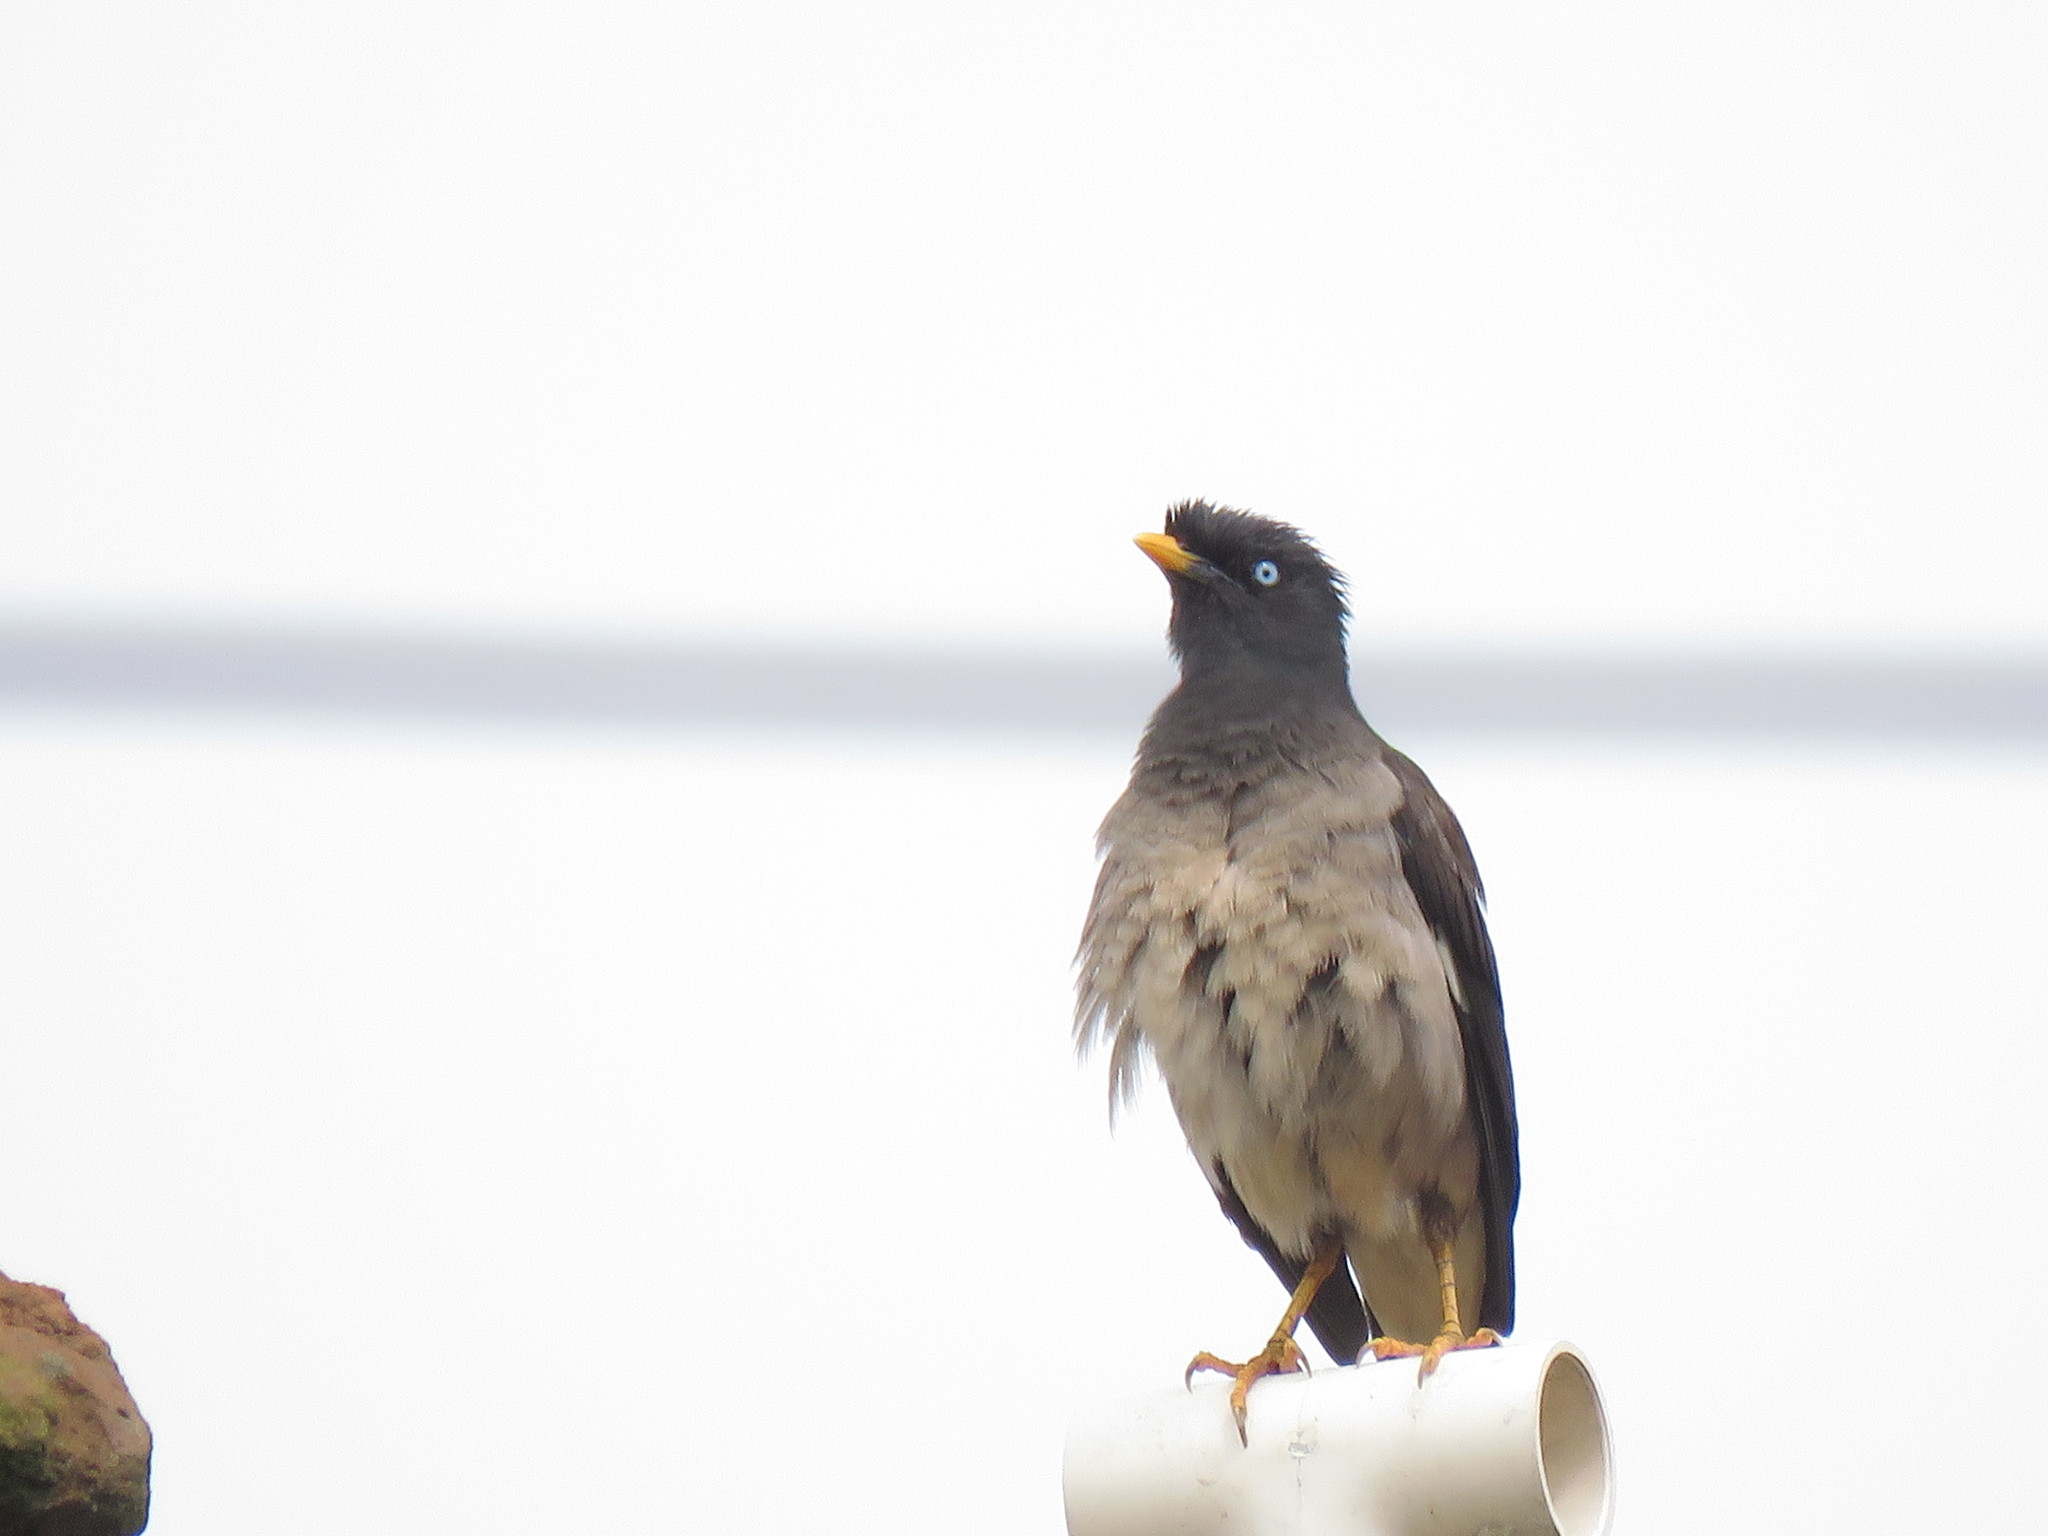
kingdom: Animalia
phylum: Chordata
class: Aves
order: Passeriformes
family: Sturnidae
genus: Acridotheres
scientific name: Acridotheres fuscus
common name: Jungle myna
